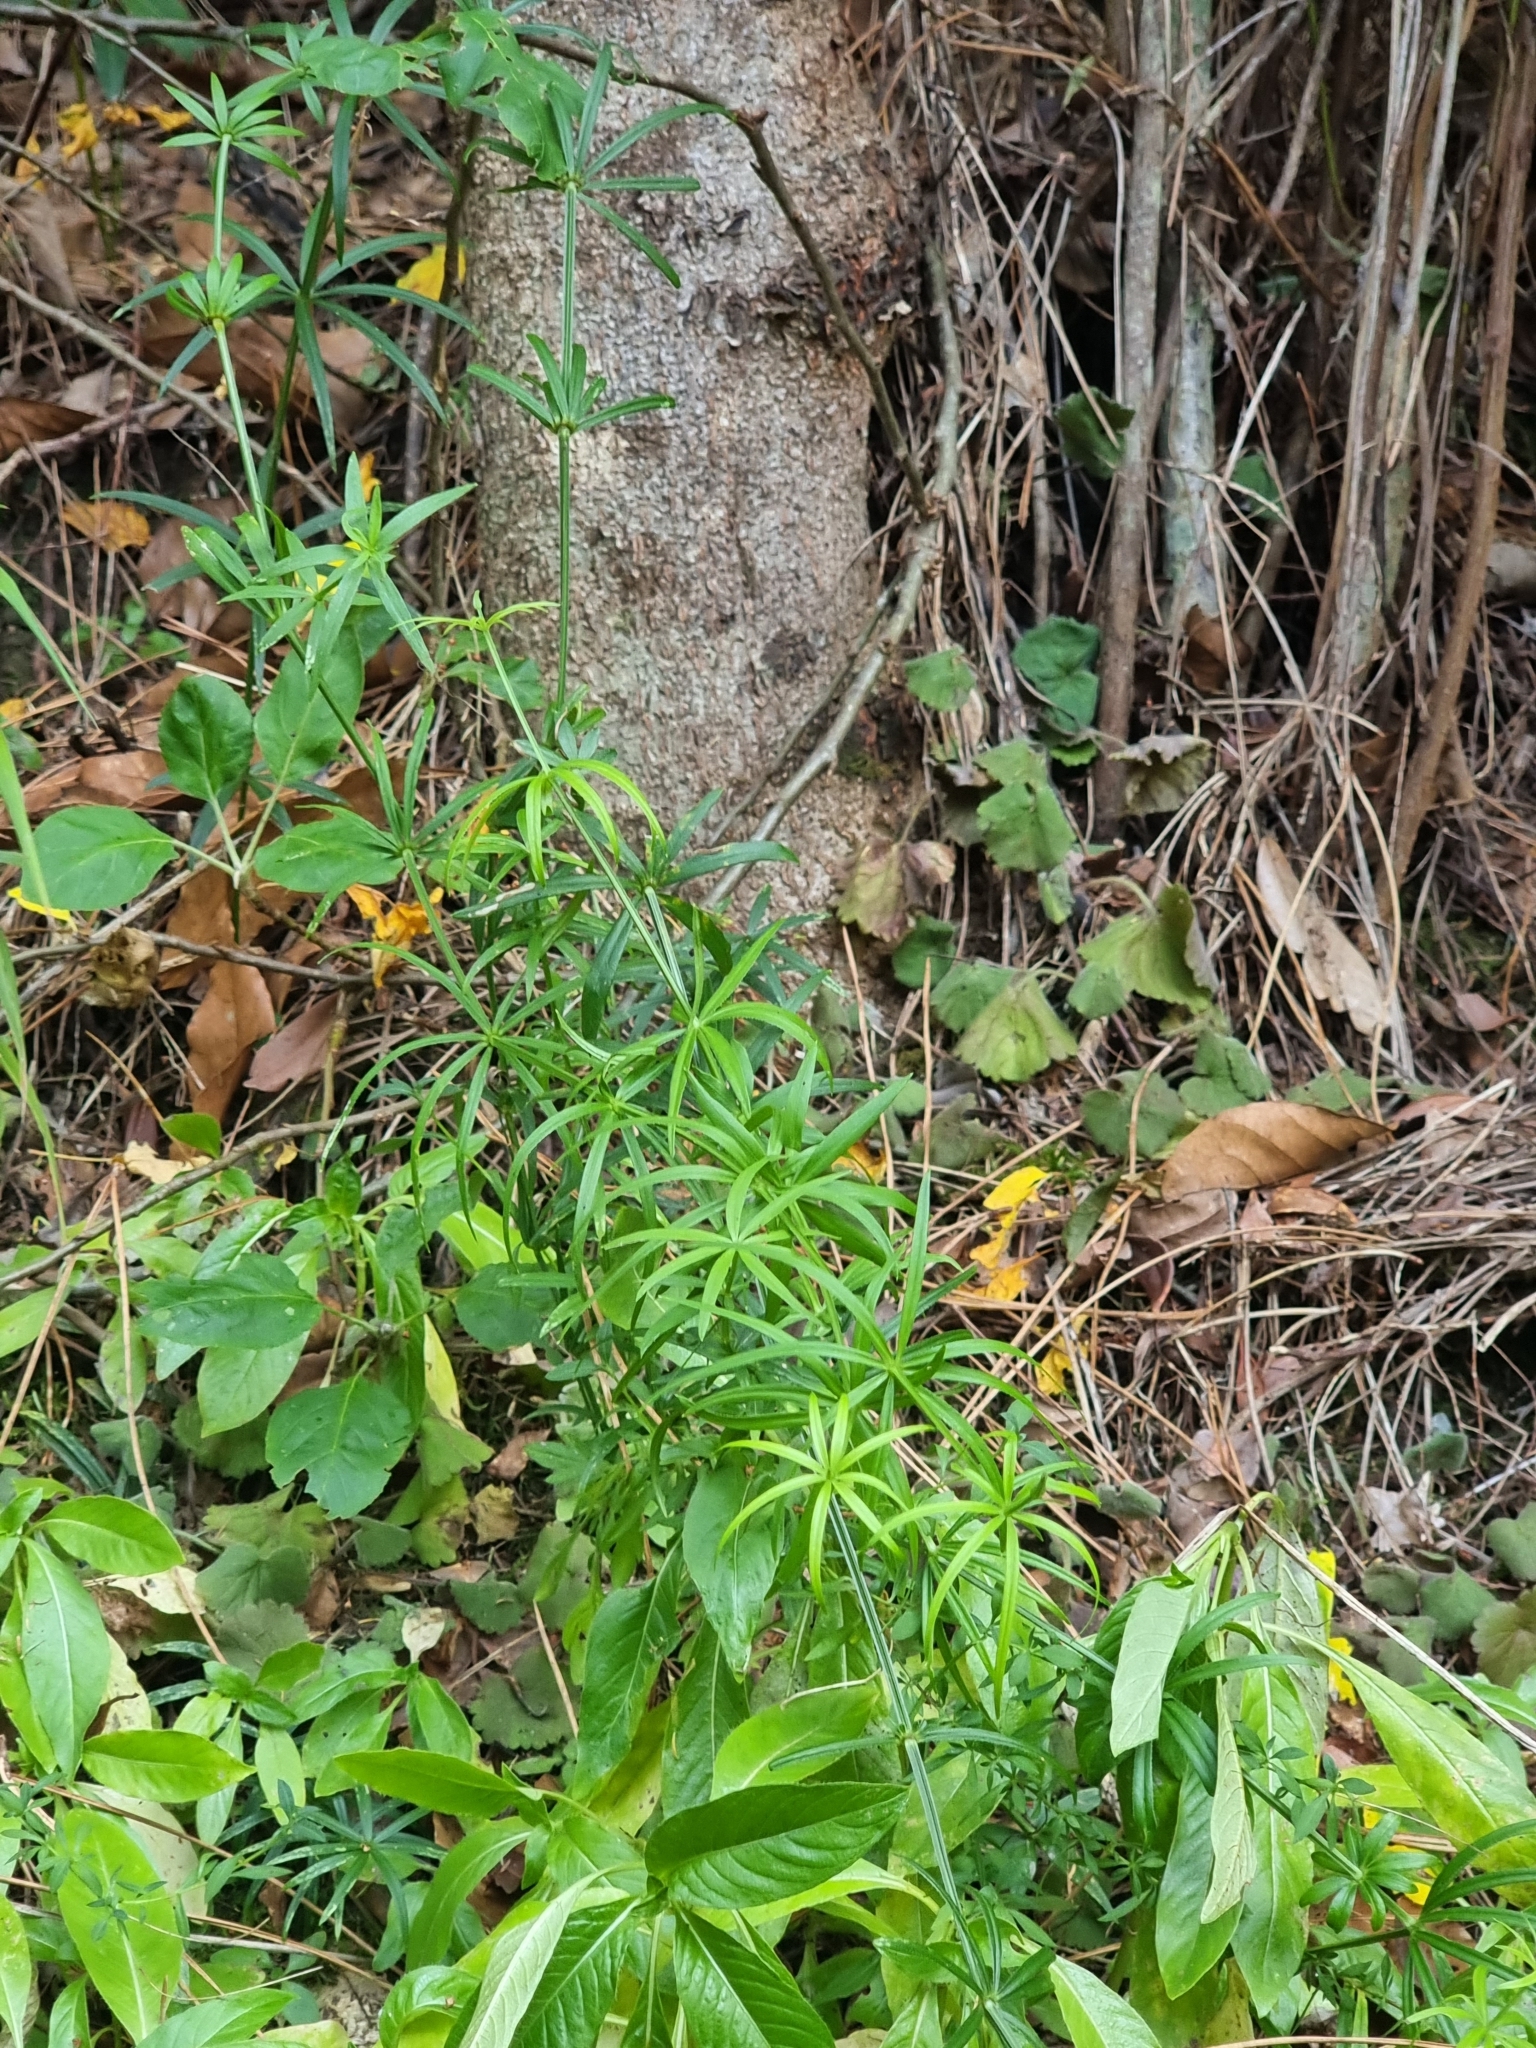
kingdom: Plantae
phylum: Tracheophyta
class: Magnoliopsida
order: Gentianales
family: Rubiaceae
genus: Rubia
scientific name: Rubia occidens
